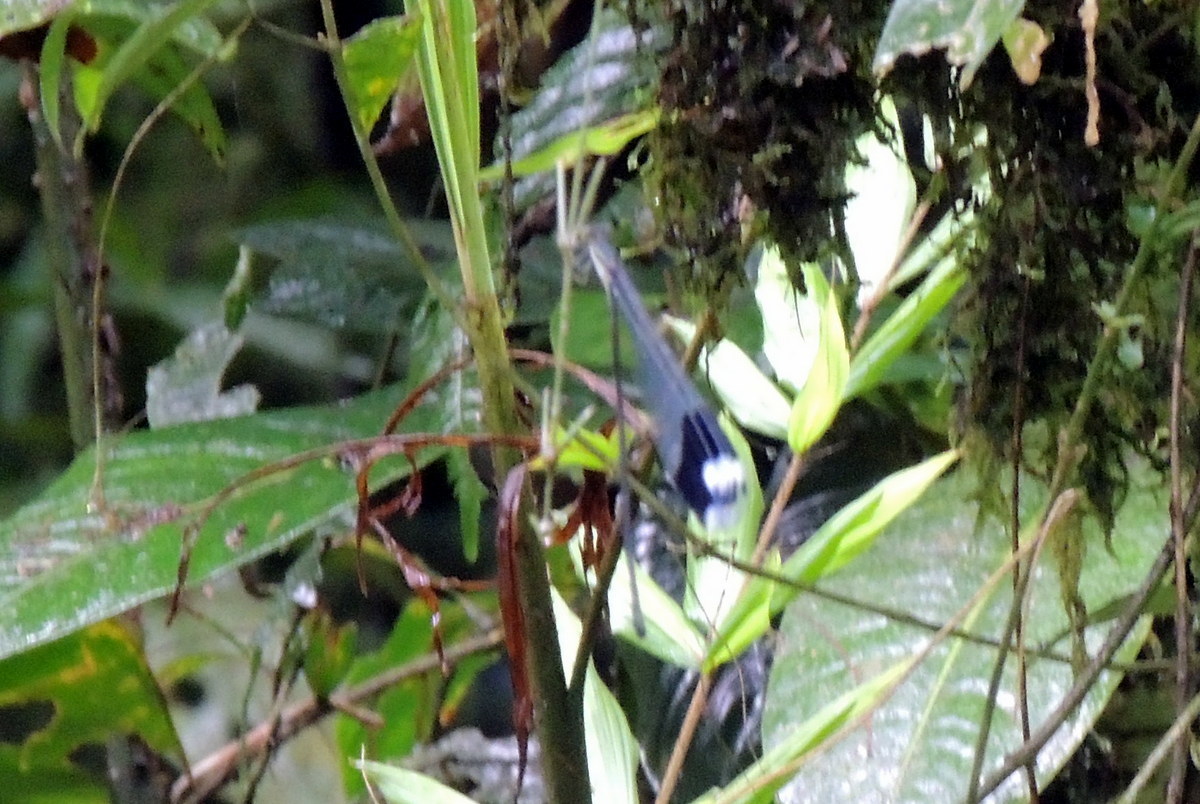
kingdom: Animalia
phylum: Arthropoda
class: Insecta
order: Odonata
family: Coenagrionidae
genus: Megaloprepus
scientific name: Megaloprepus caerulatus
